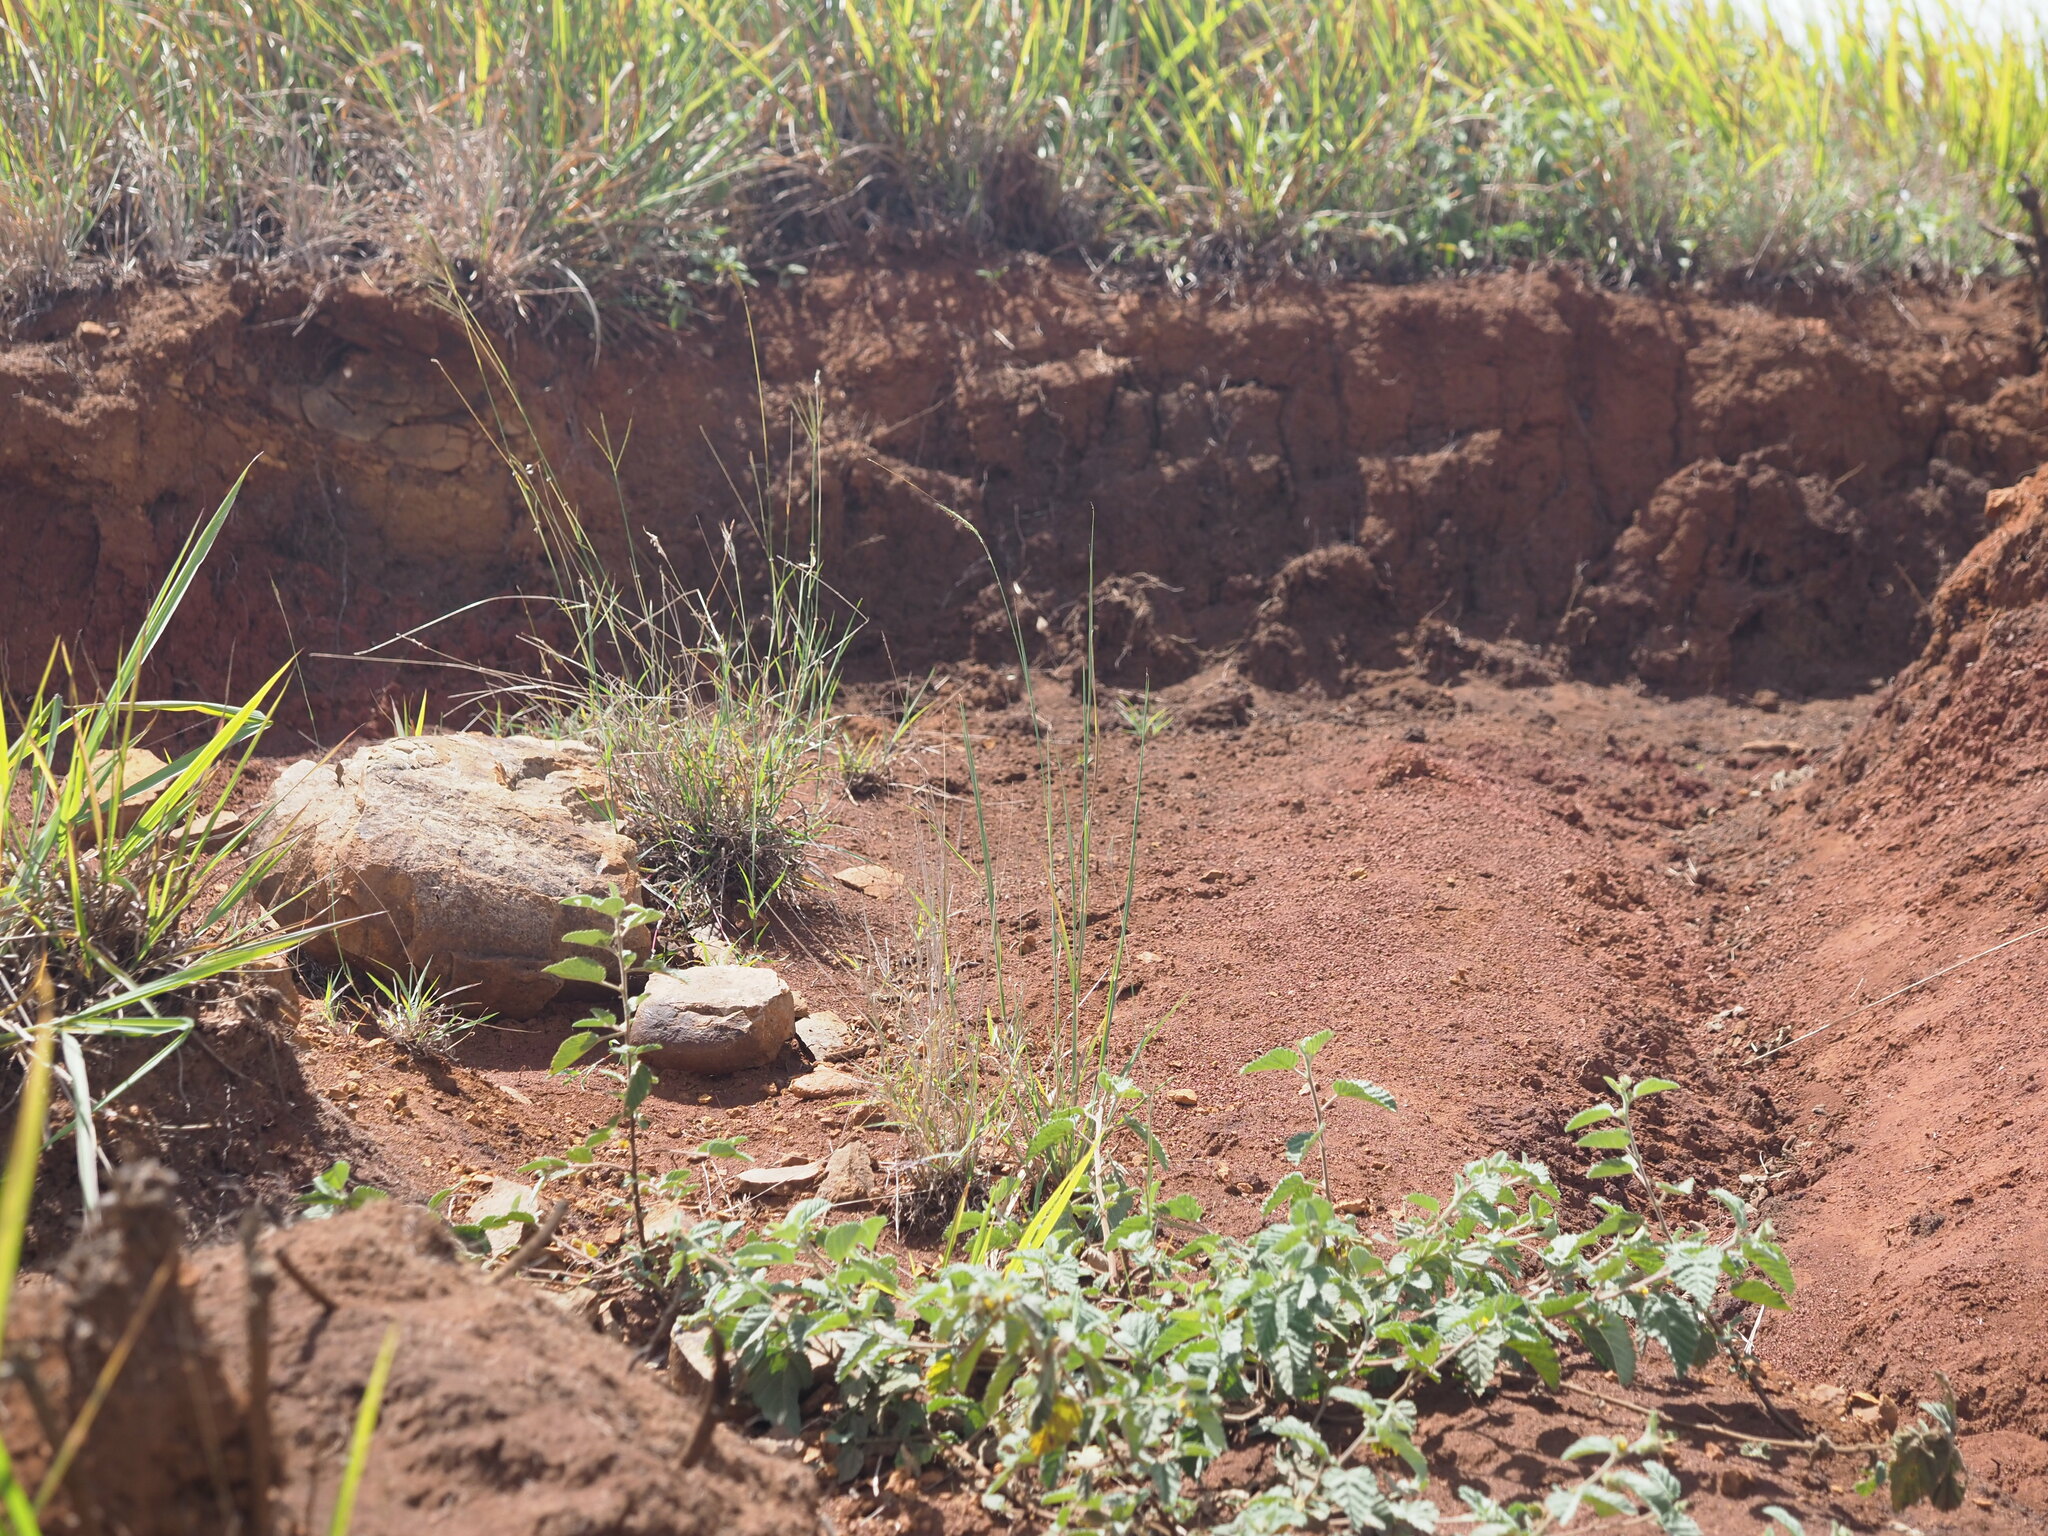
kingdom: Plantae
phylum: Tracheophyta
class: Liliopsida
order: Poales
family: Poaceae
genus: Heteropogon
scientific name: Heteropogon contortus
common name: Tanglehead
